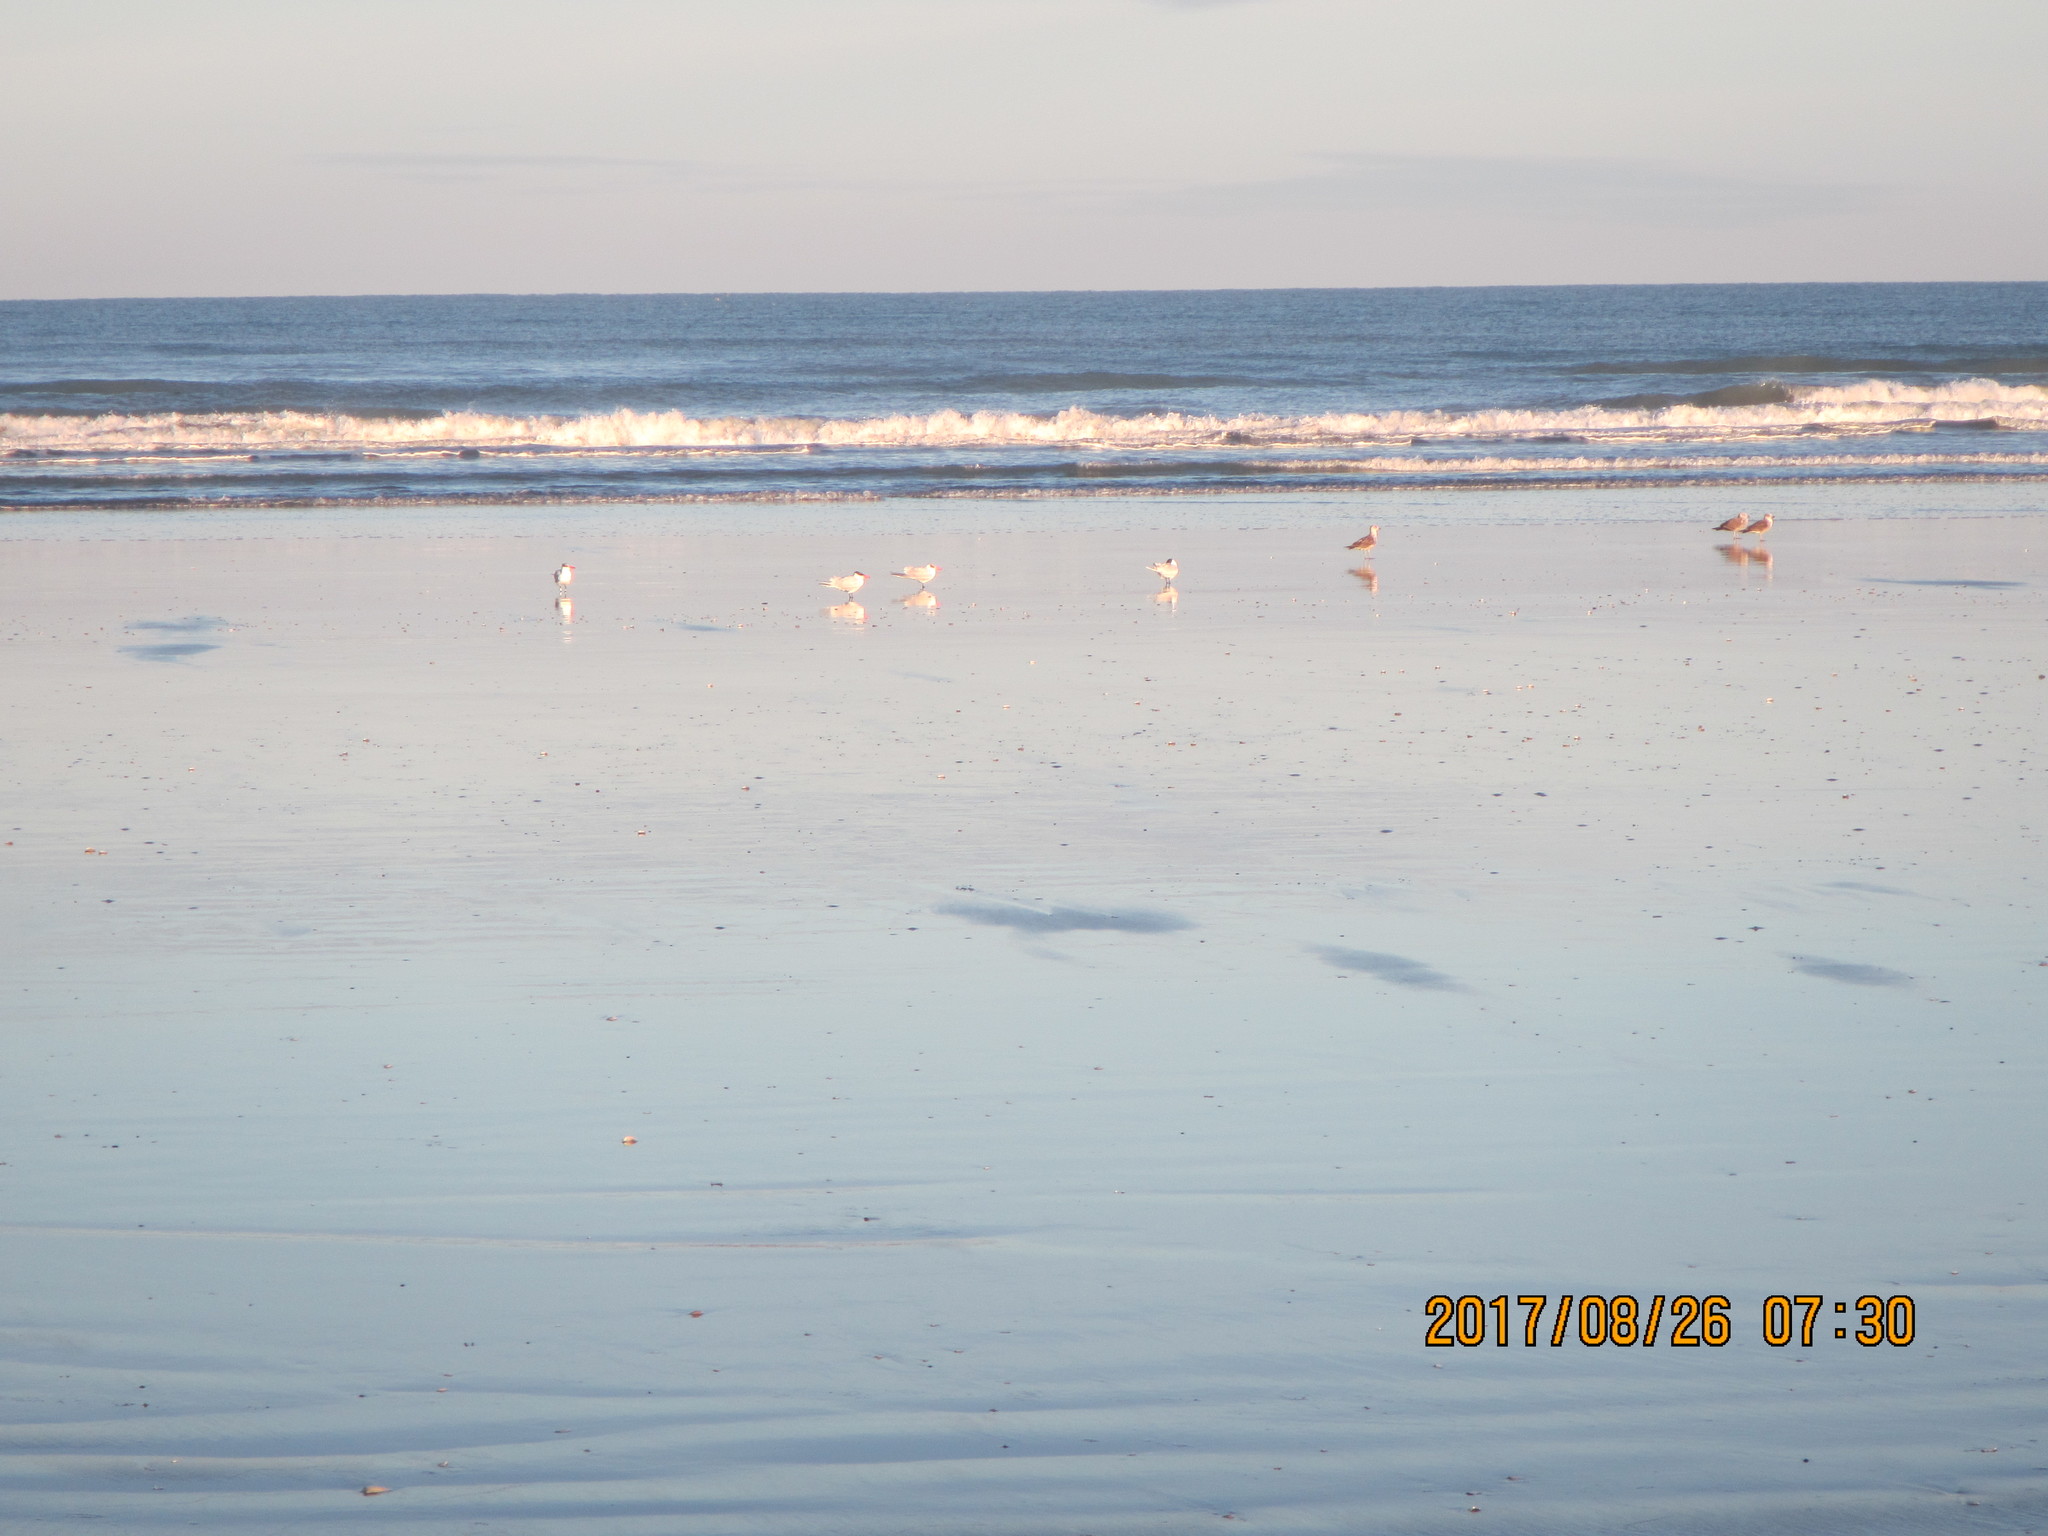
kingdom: Animalia
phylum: Chordata
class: Aves
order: Charadriiformes
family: Laridae
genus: Hydroprogne
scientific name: Hydroprogne caspia
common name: Caspian tern
